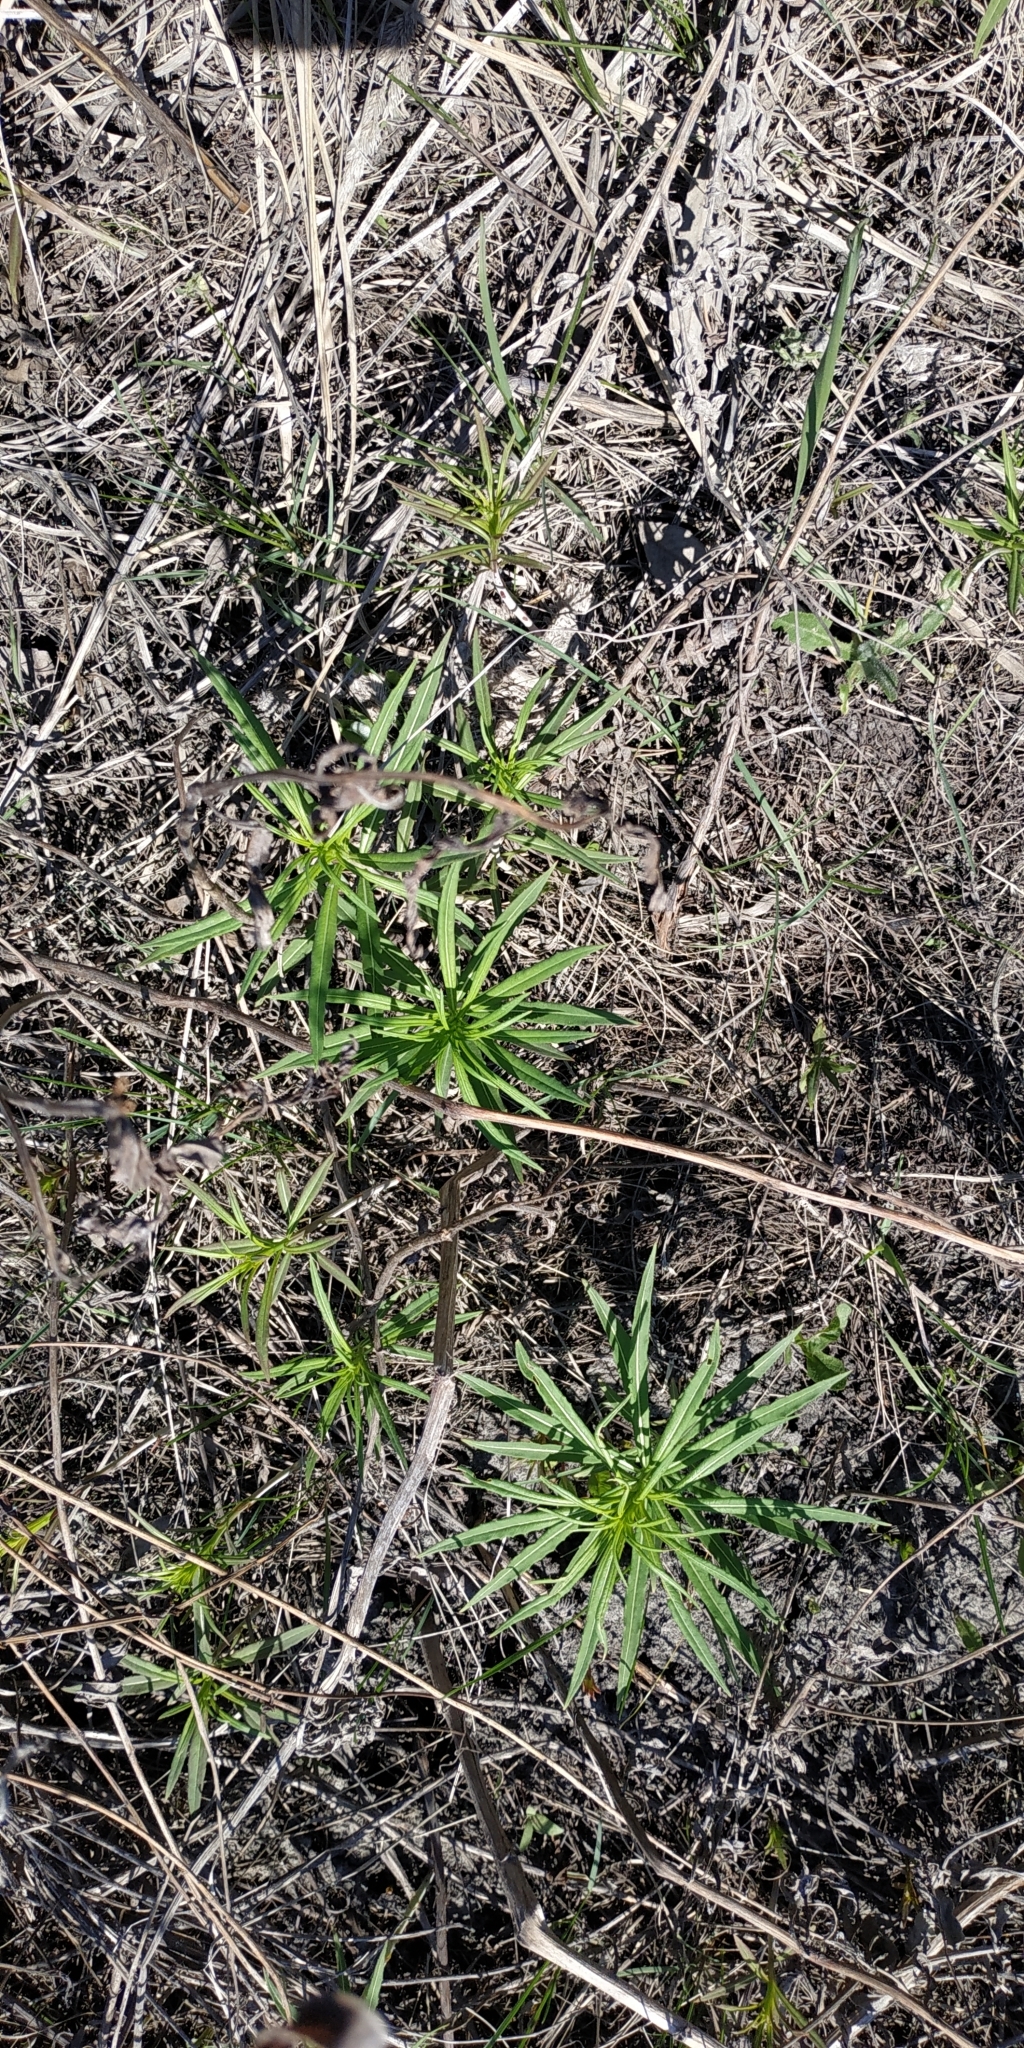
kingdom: Plantae
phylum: Tracheophyta
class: Magnoliopsida
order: Myrtales
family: Onagraceae
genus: Chamaenerion
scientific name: Chamaenerion angustifolium
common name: Fireweed
